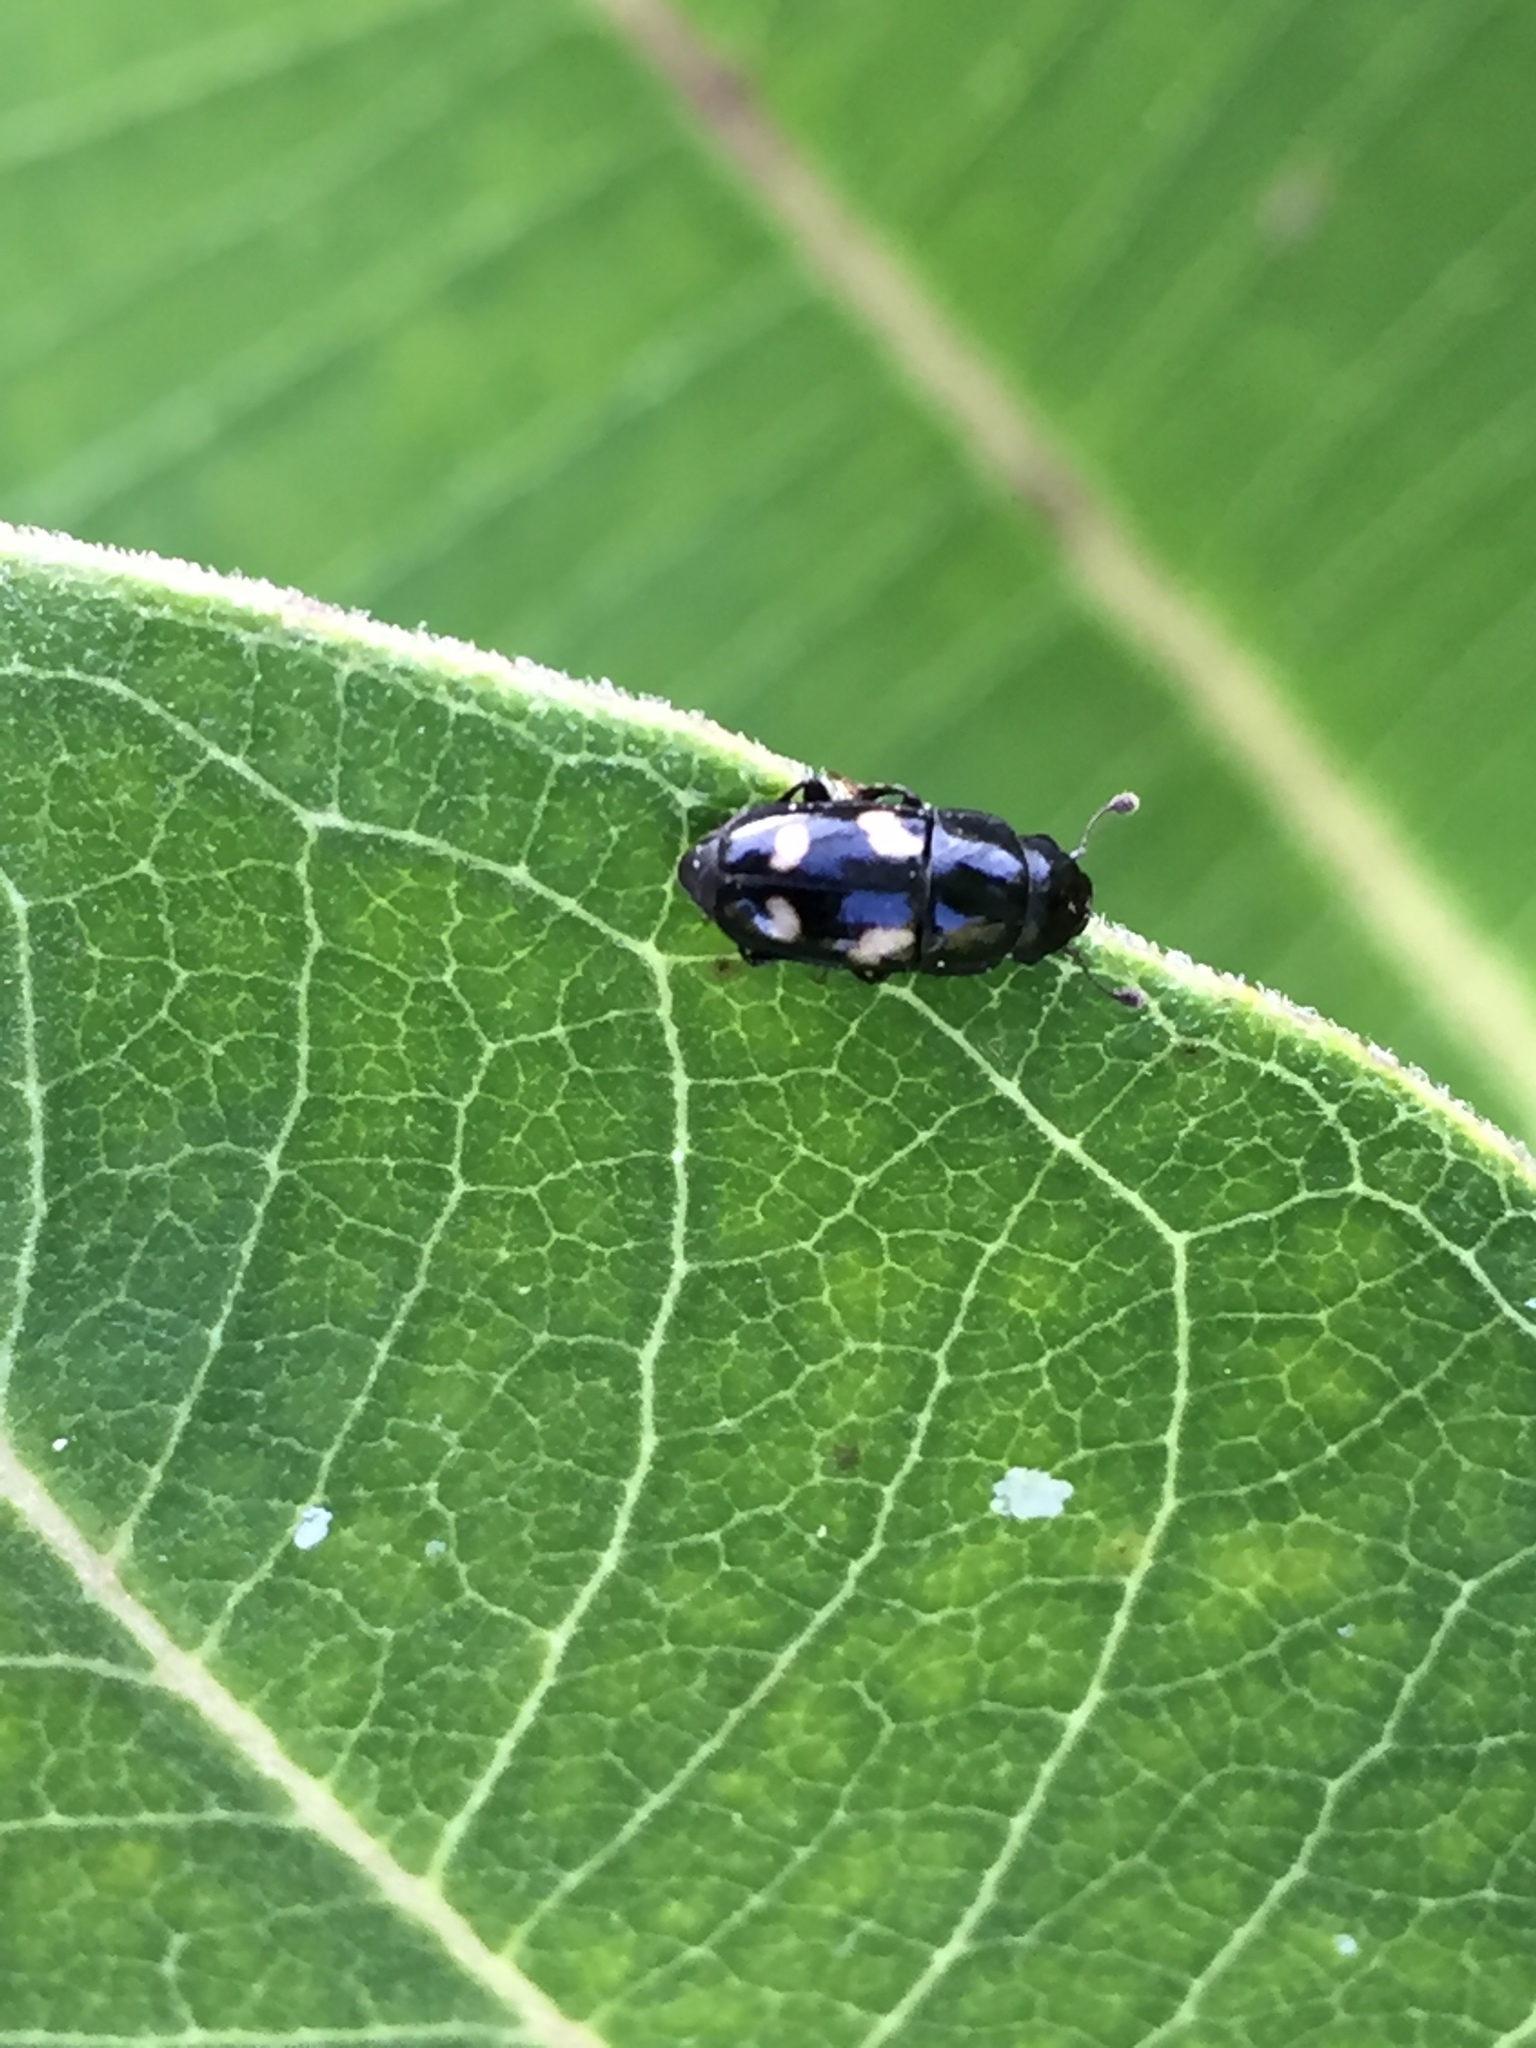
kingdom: Animalia
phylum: Arthropoda
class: Insecta
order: Coleoptera
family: Nitidulidae
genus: Glischrochilus
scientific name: Glischrochilus quadrisignatus
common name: Picnic beetle
